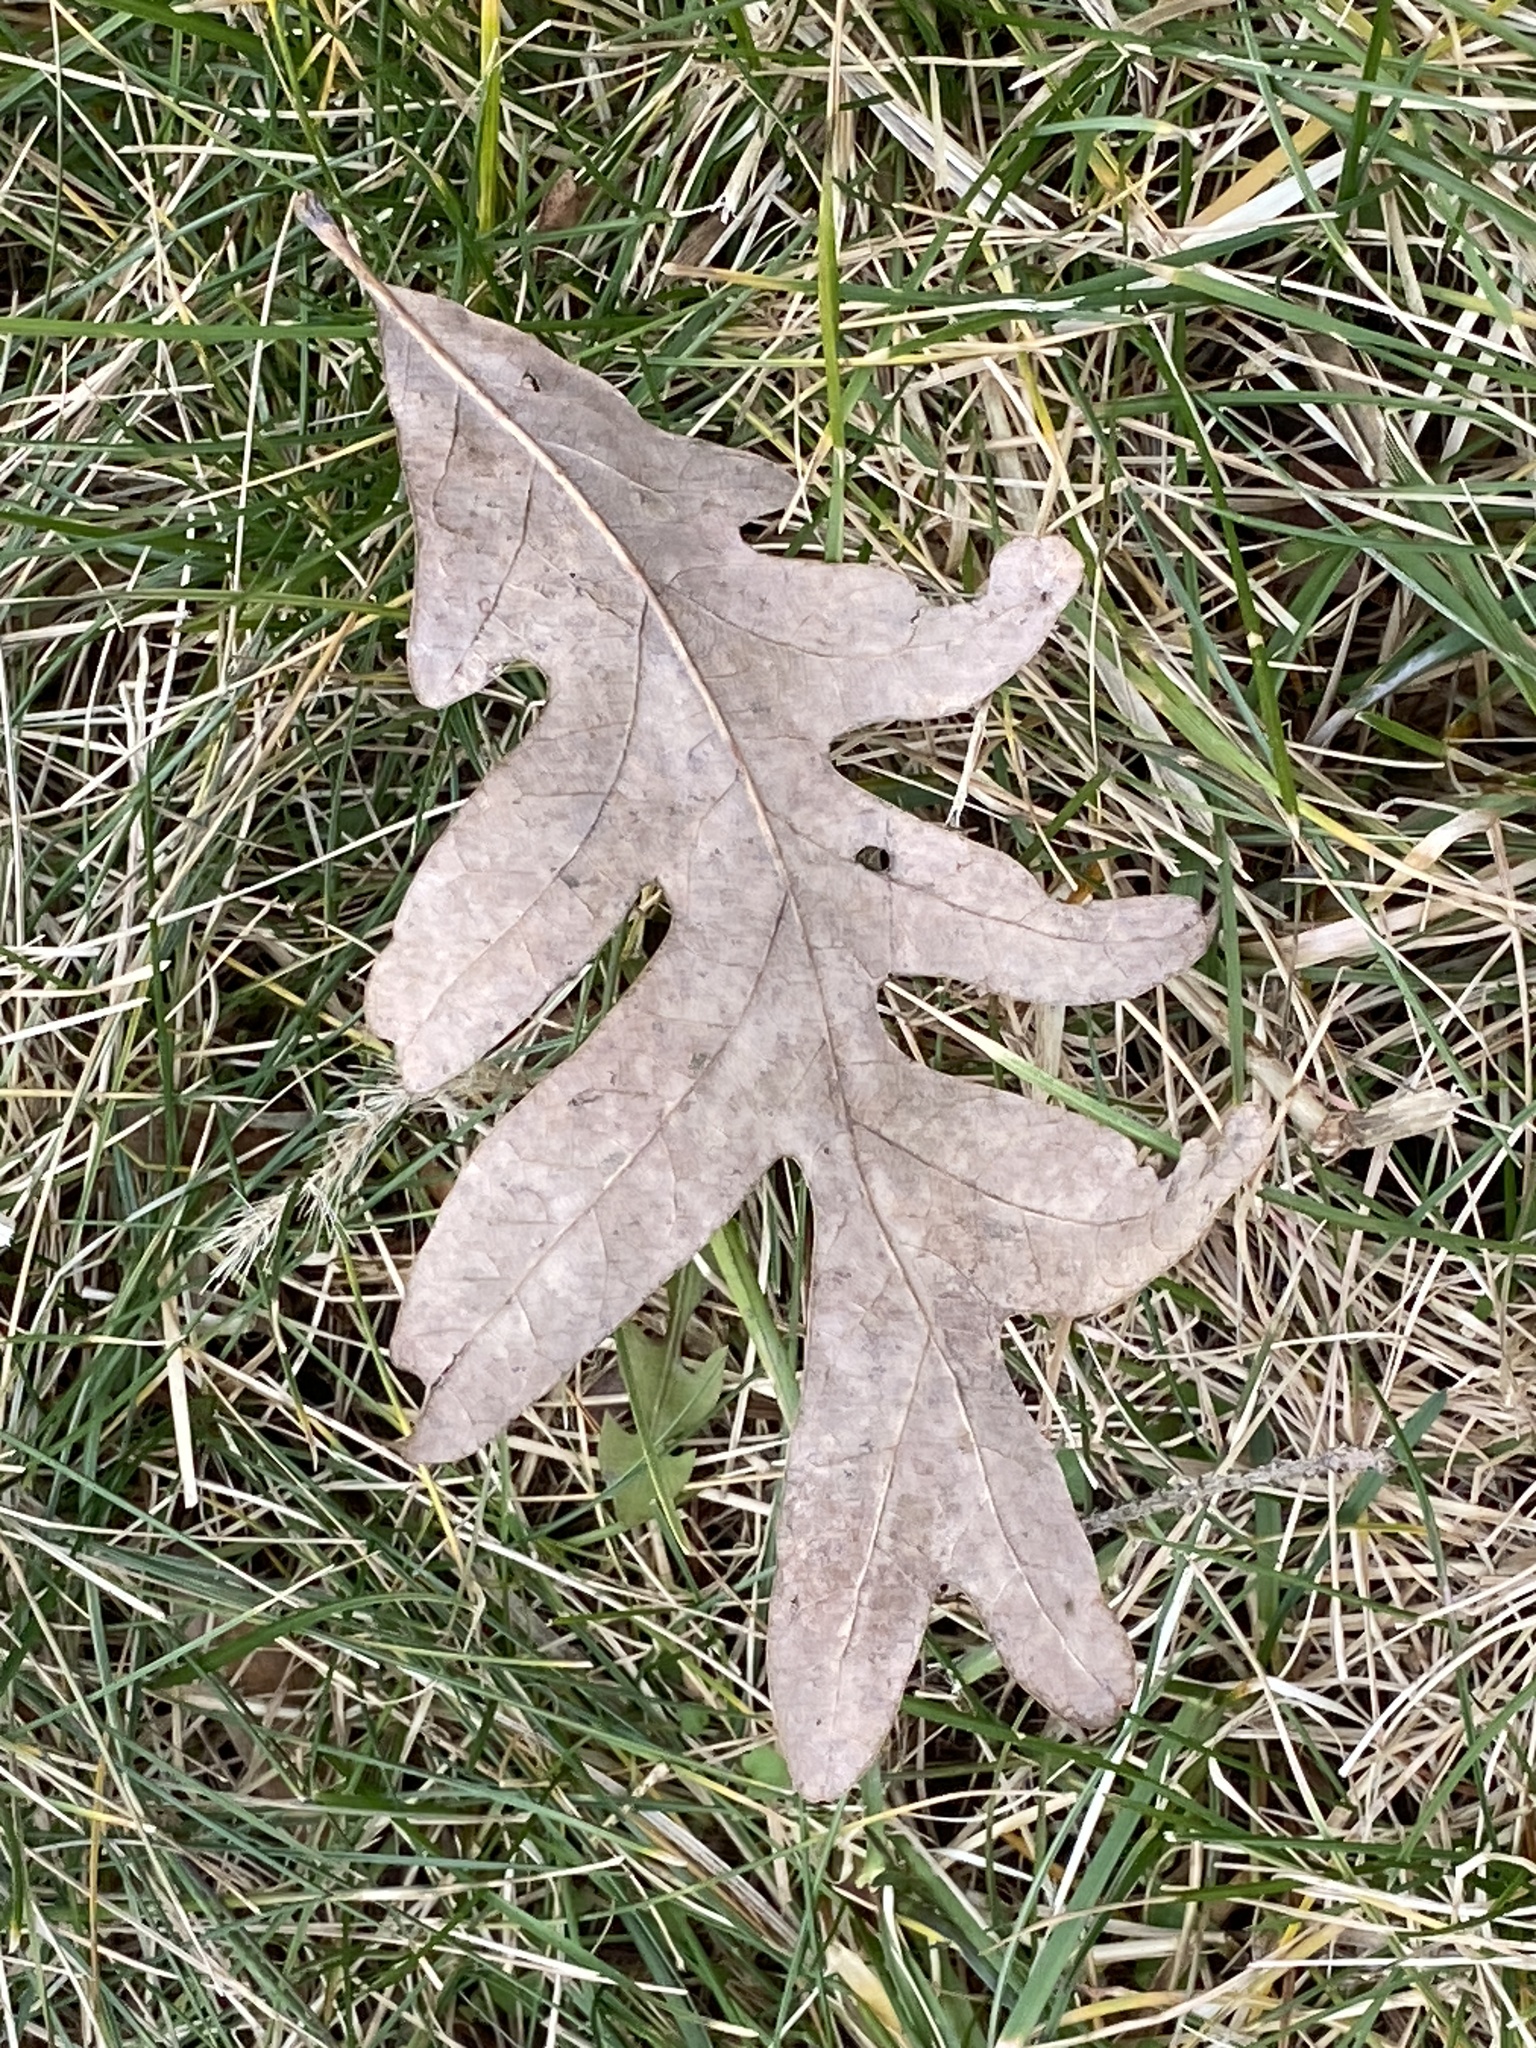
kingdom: Plantae
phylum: Tracheophyta
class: Magnoliopsida
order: Fagales
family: Fagaceae
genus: Quercus
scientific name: Quercus alba
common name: White oak
